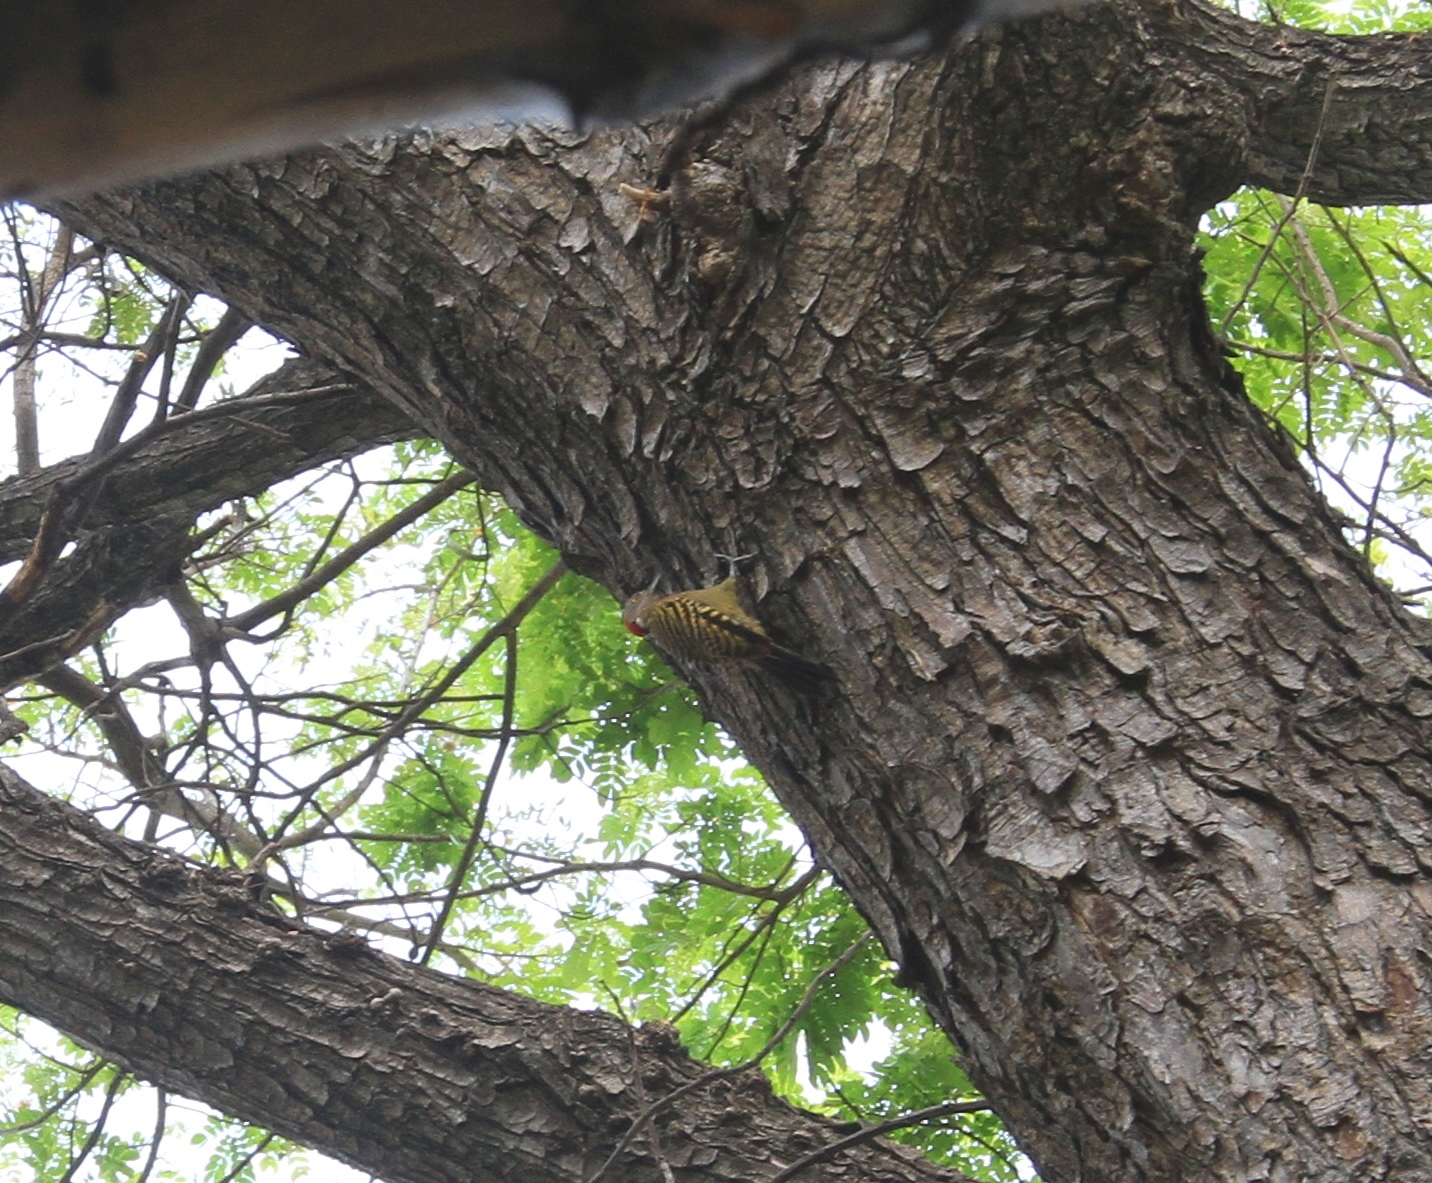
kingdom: Animalia
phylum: Chordata
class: Aves
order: Piciformes
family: Picidae
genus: Melanerpes
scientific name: Melanerpes striatus
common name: Hispaniolan woodpecker
